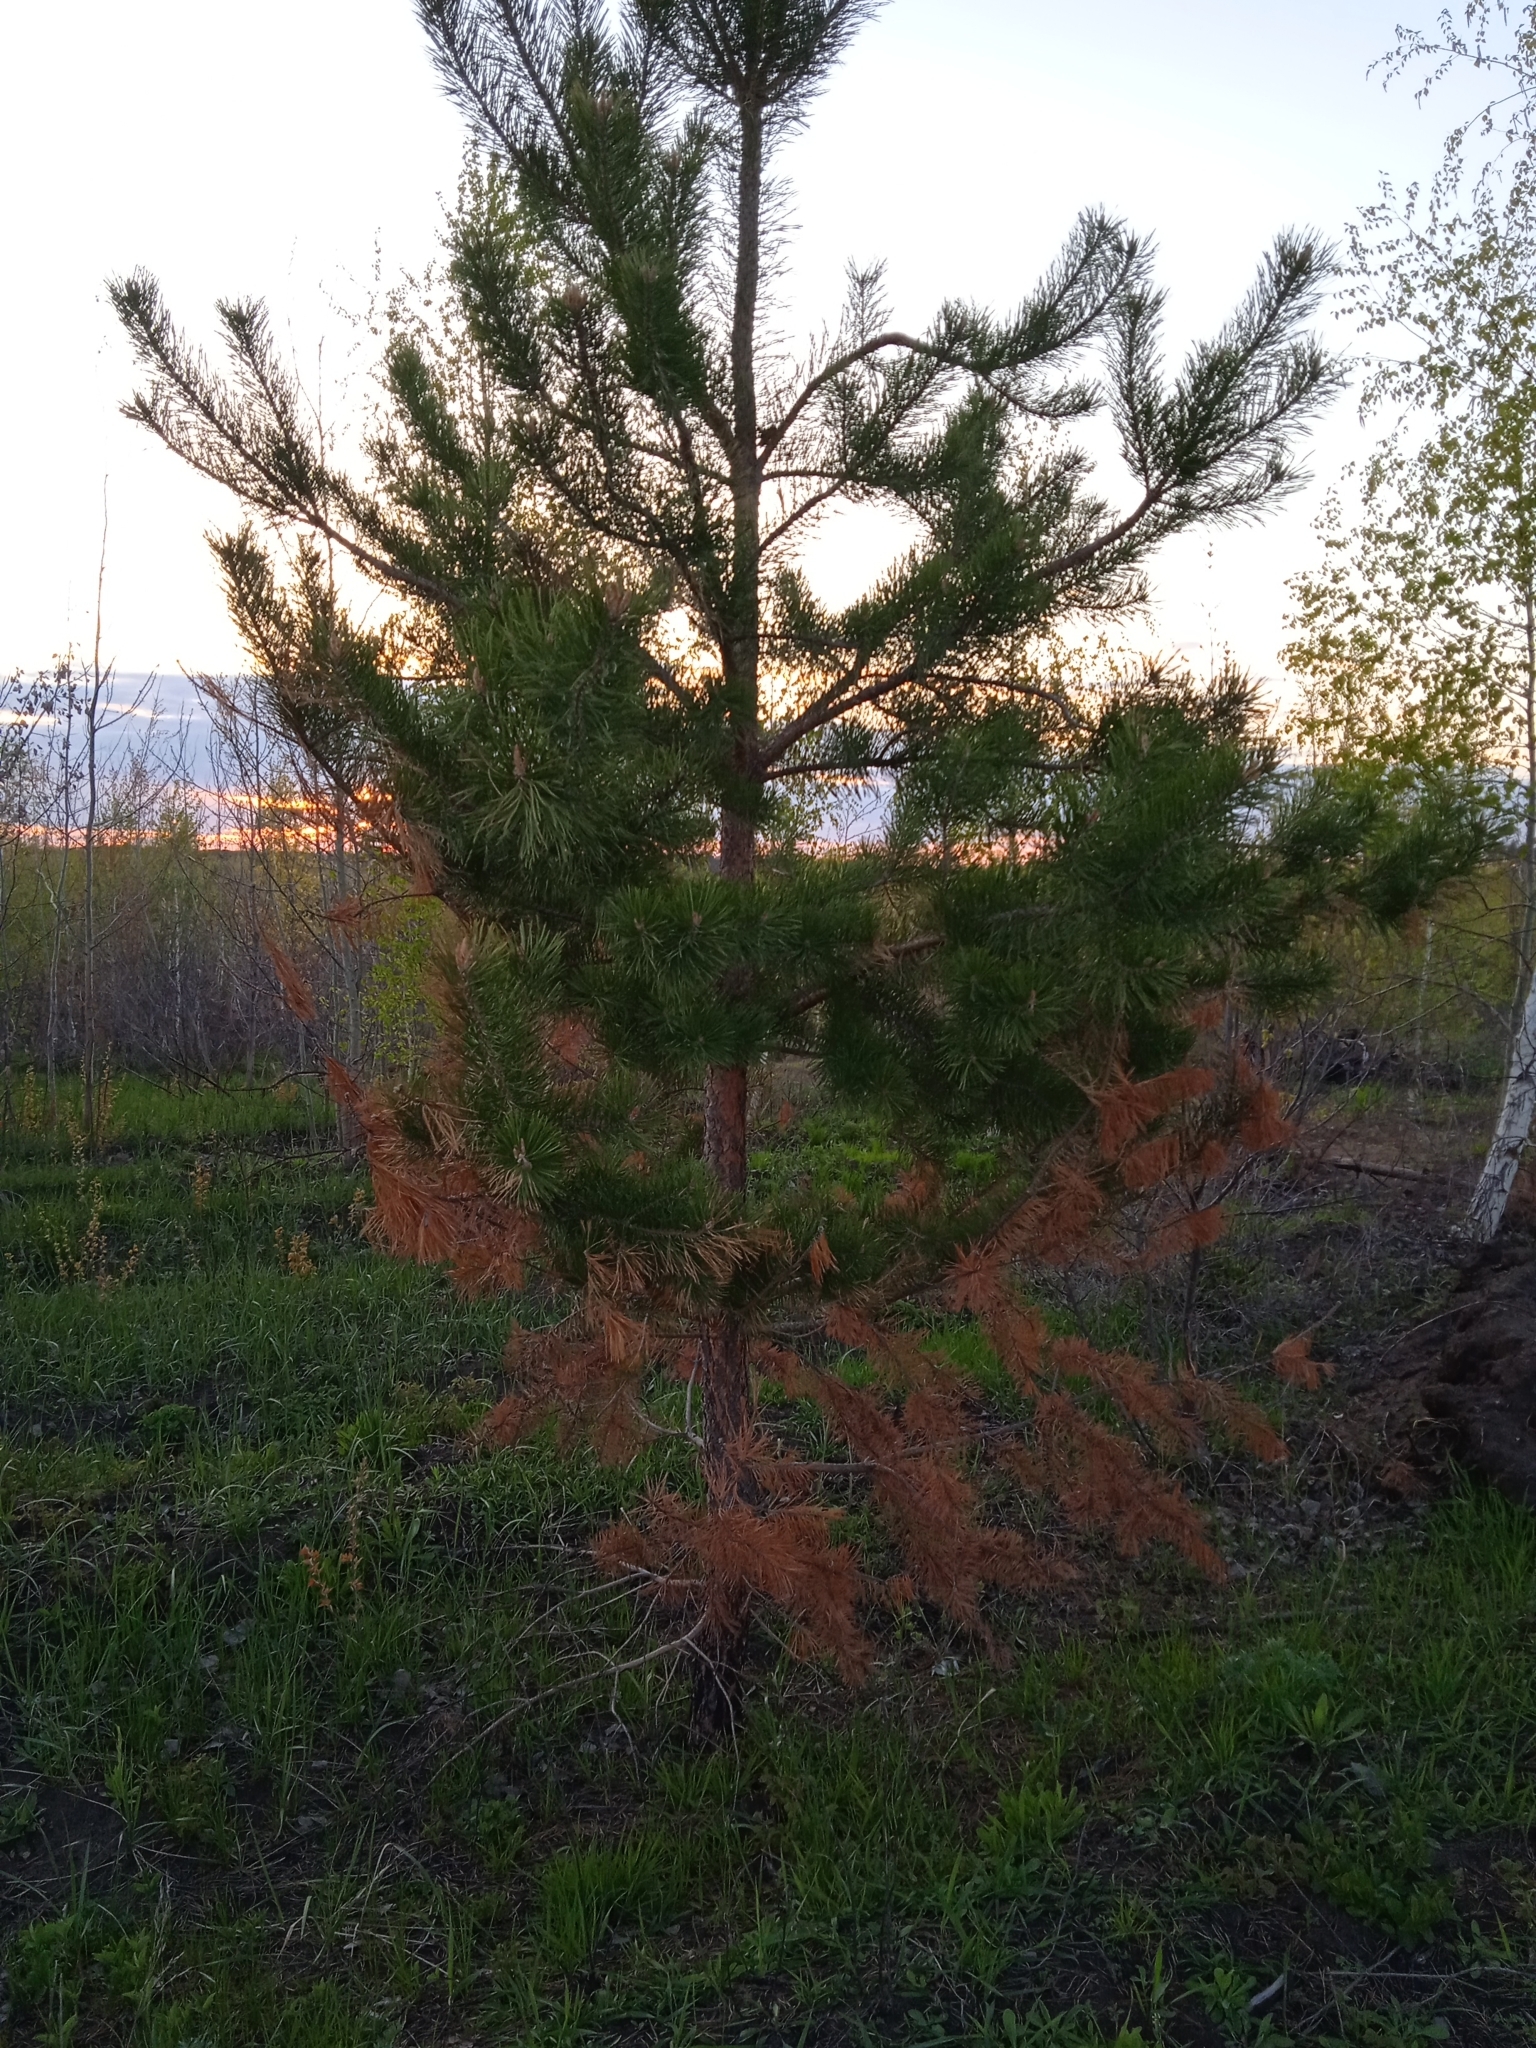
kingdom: Plantae
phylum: Tracheophyta
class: Pinopsida
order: Pinales
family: Pinaceae
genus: Pinus
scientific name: Pinus sylvestris
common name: Scots pine
